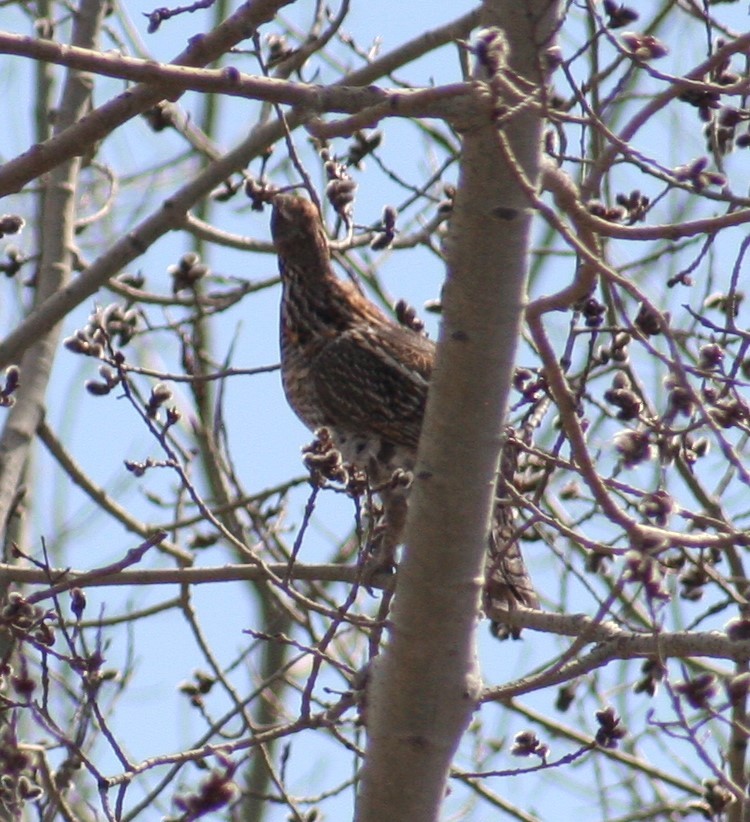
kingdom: Animalia
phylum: Chordata
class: Aves
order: Galliformes
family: Phasianidae
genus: Bonasa
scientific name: Bonasa umbellus
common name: Ruffed grouse
